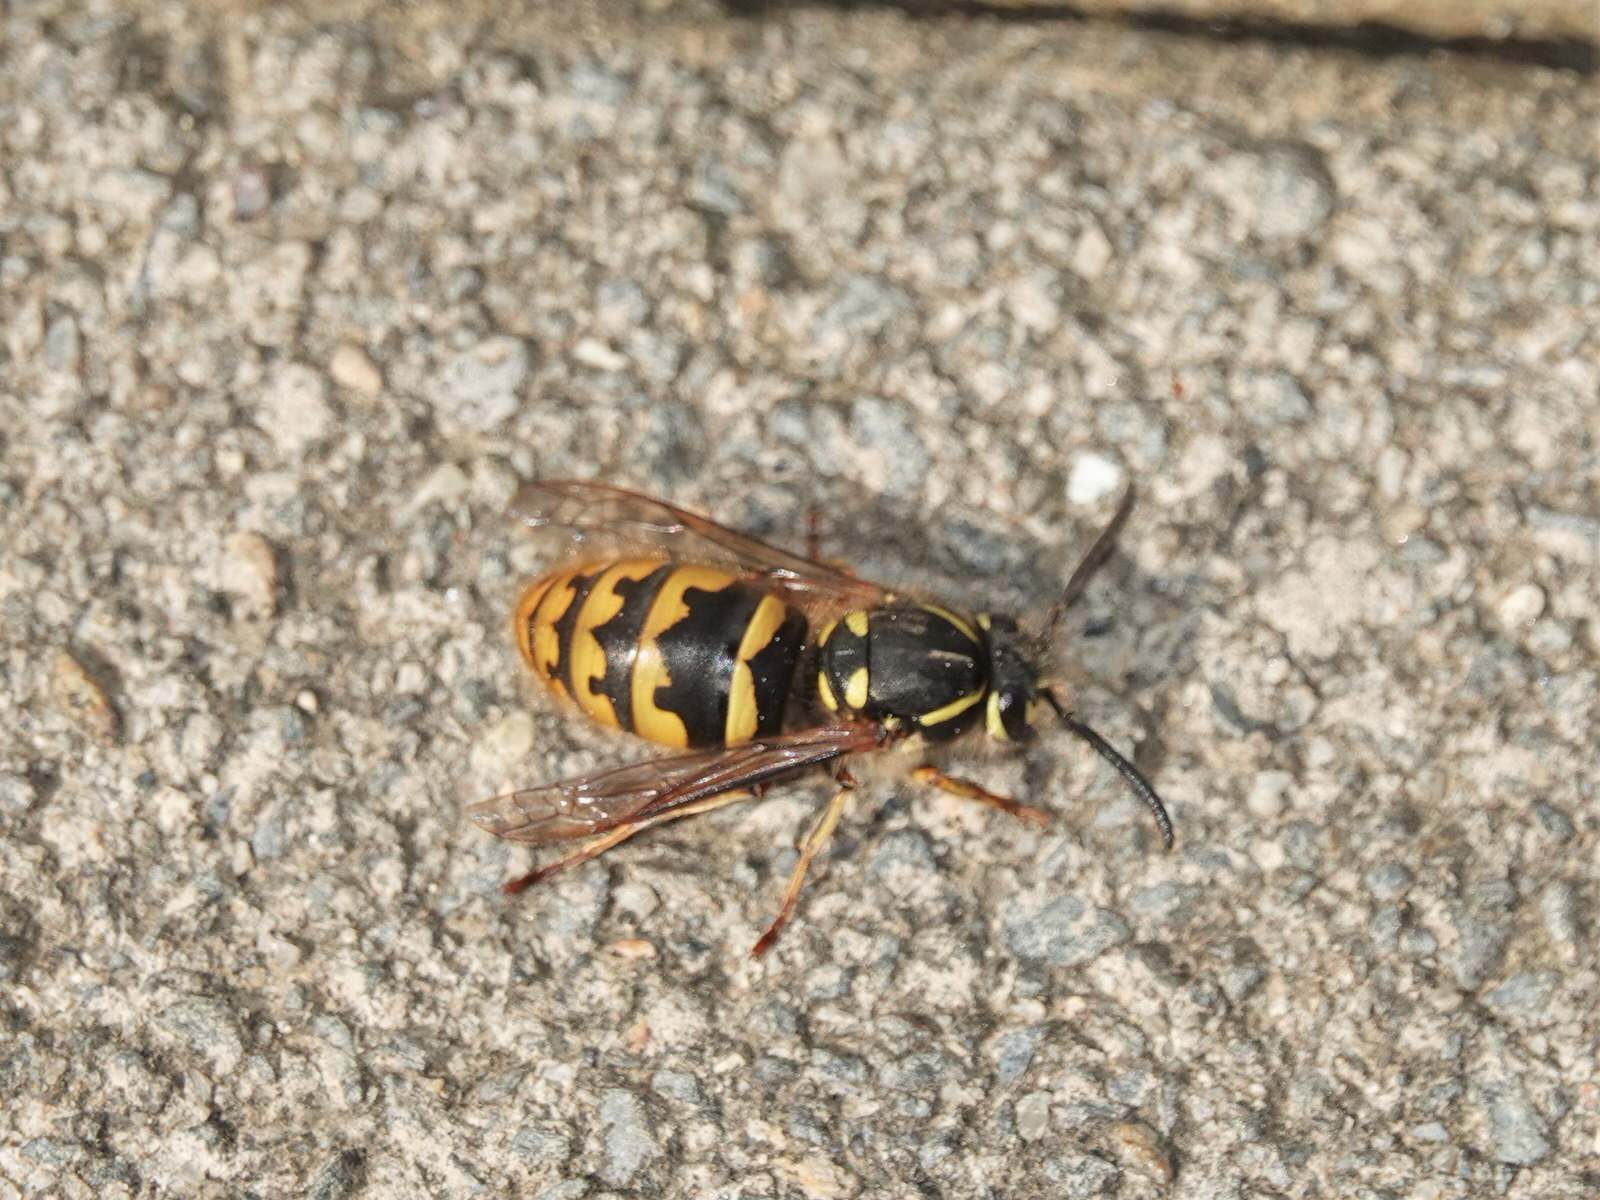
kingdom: Animalia
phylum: Arthropoda
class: Insecta
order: Hymenoptera
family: Vespidae
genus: Vespula
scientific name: Vespula vulgaris
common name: Common wasp
